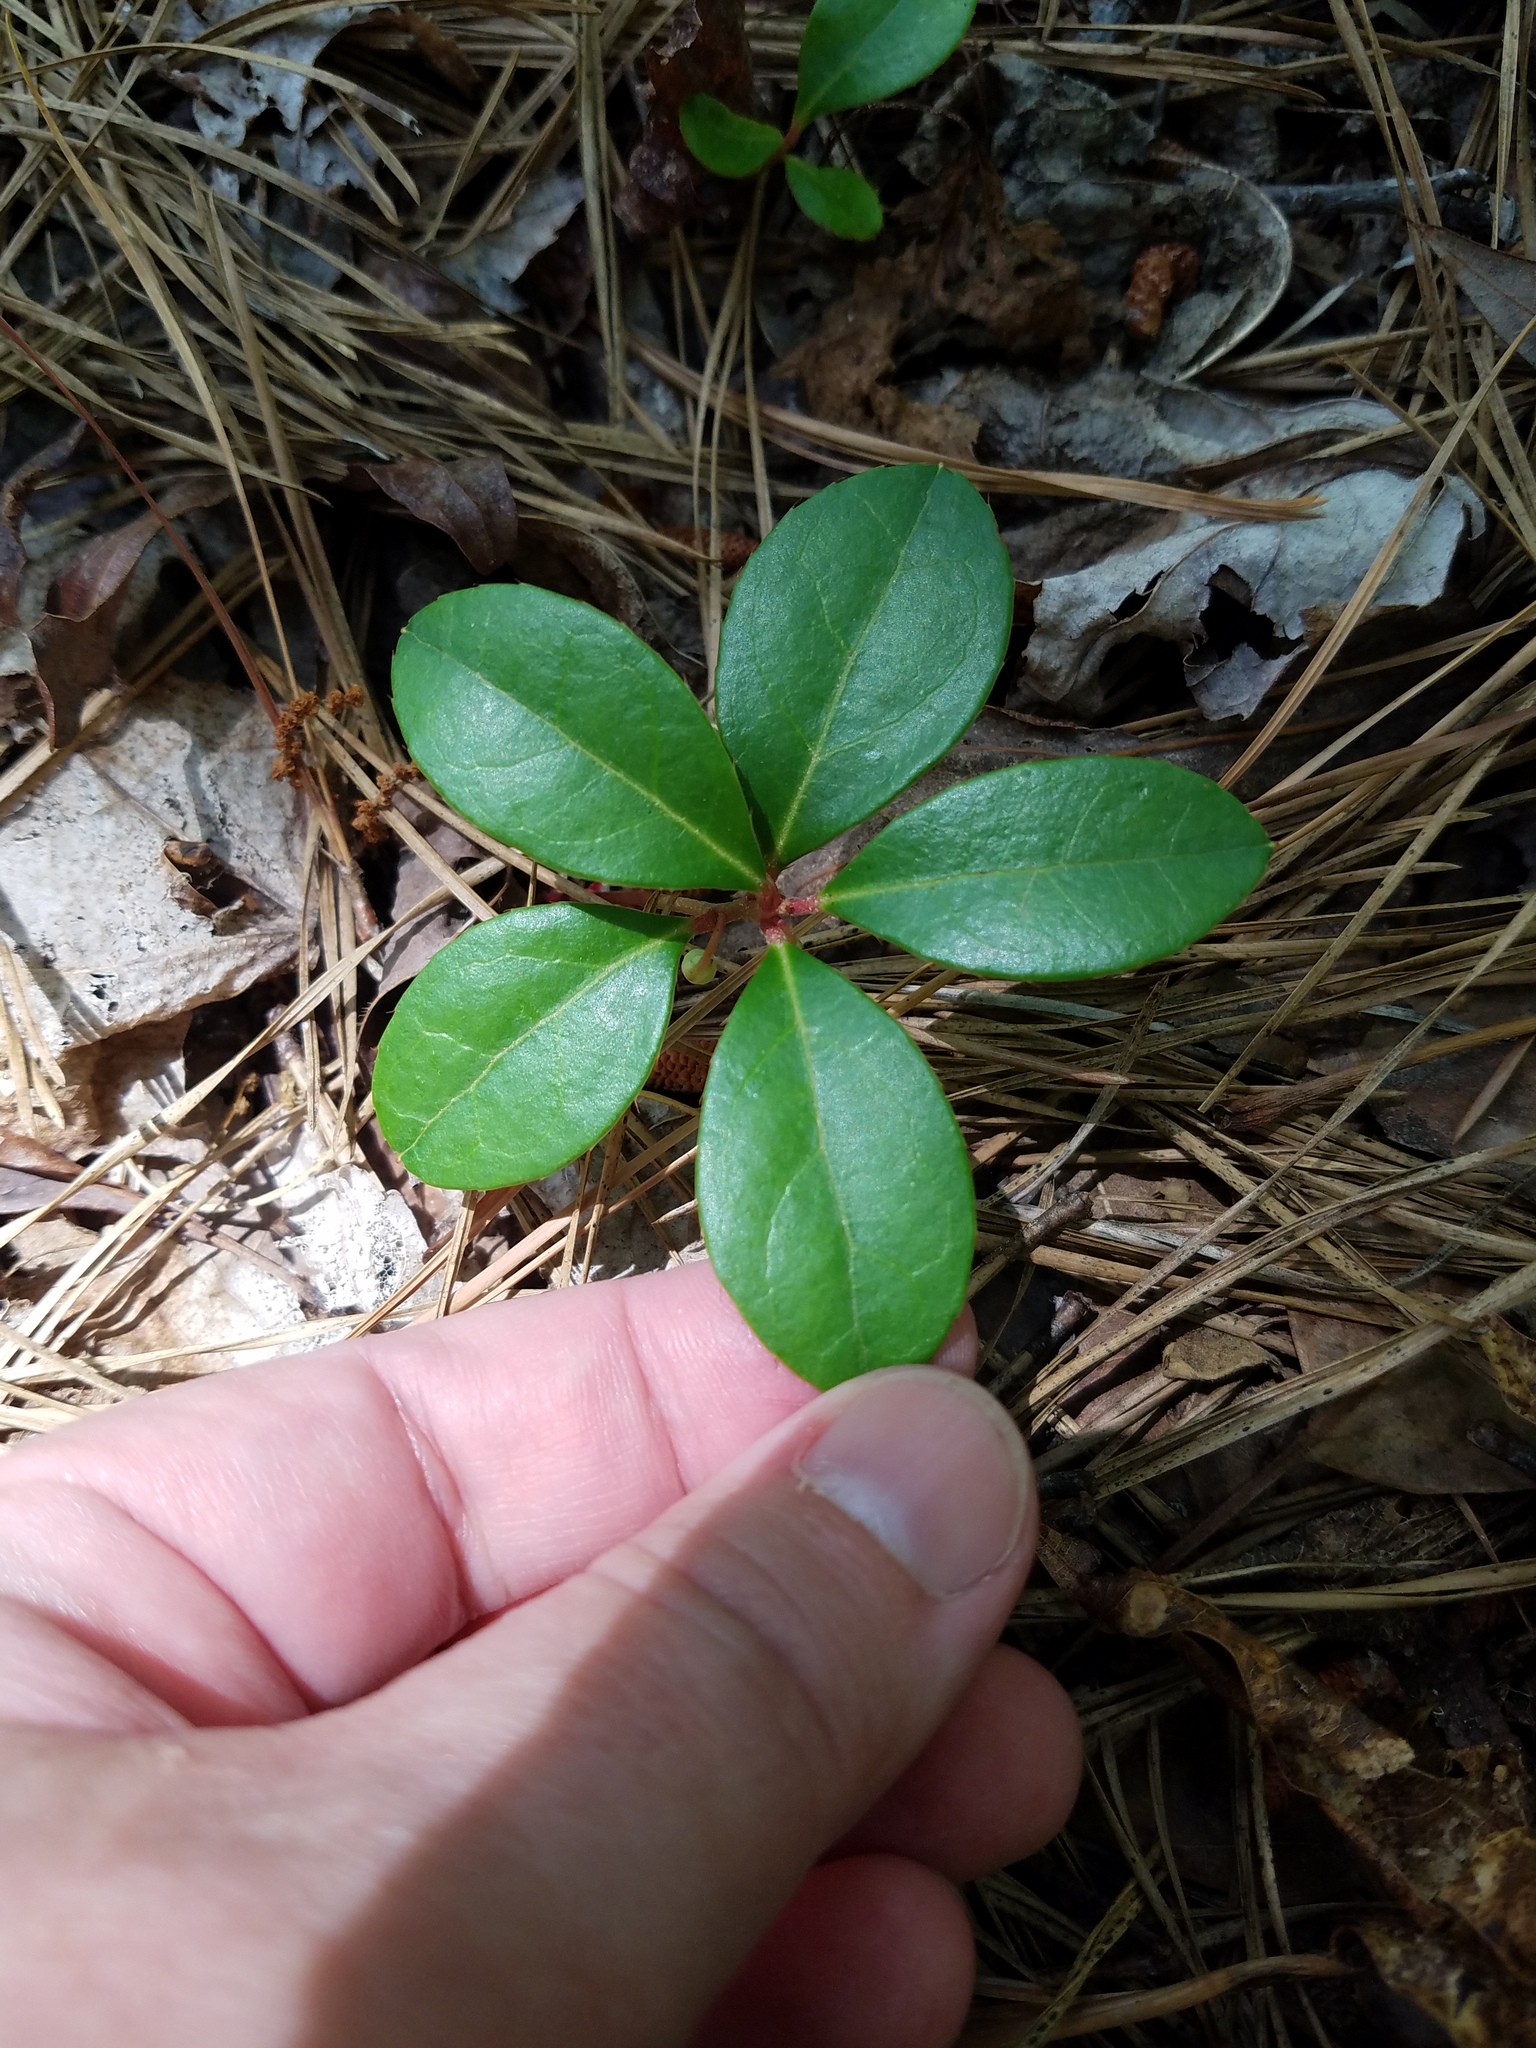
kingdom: Plantae
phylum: Tracheophyta
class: Magnoliopsida
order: Ericales
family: Ericaceae
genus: Gaultheria
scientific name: Gaultheria procumbens
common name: Checkerberry
